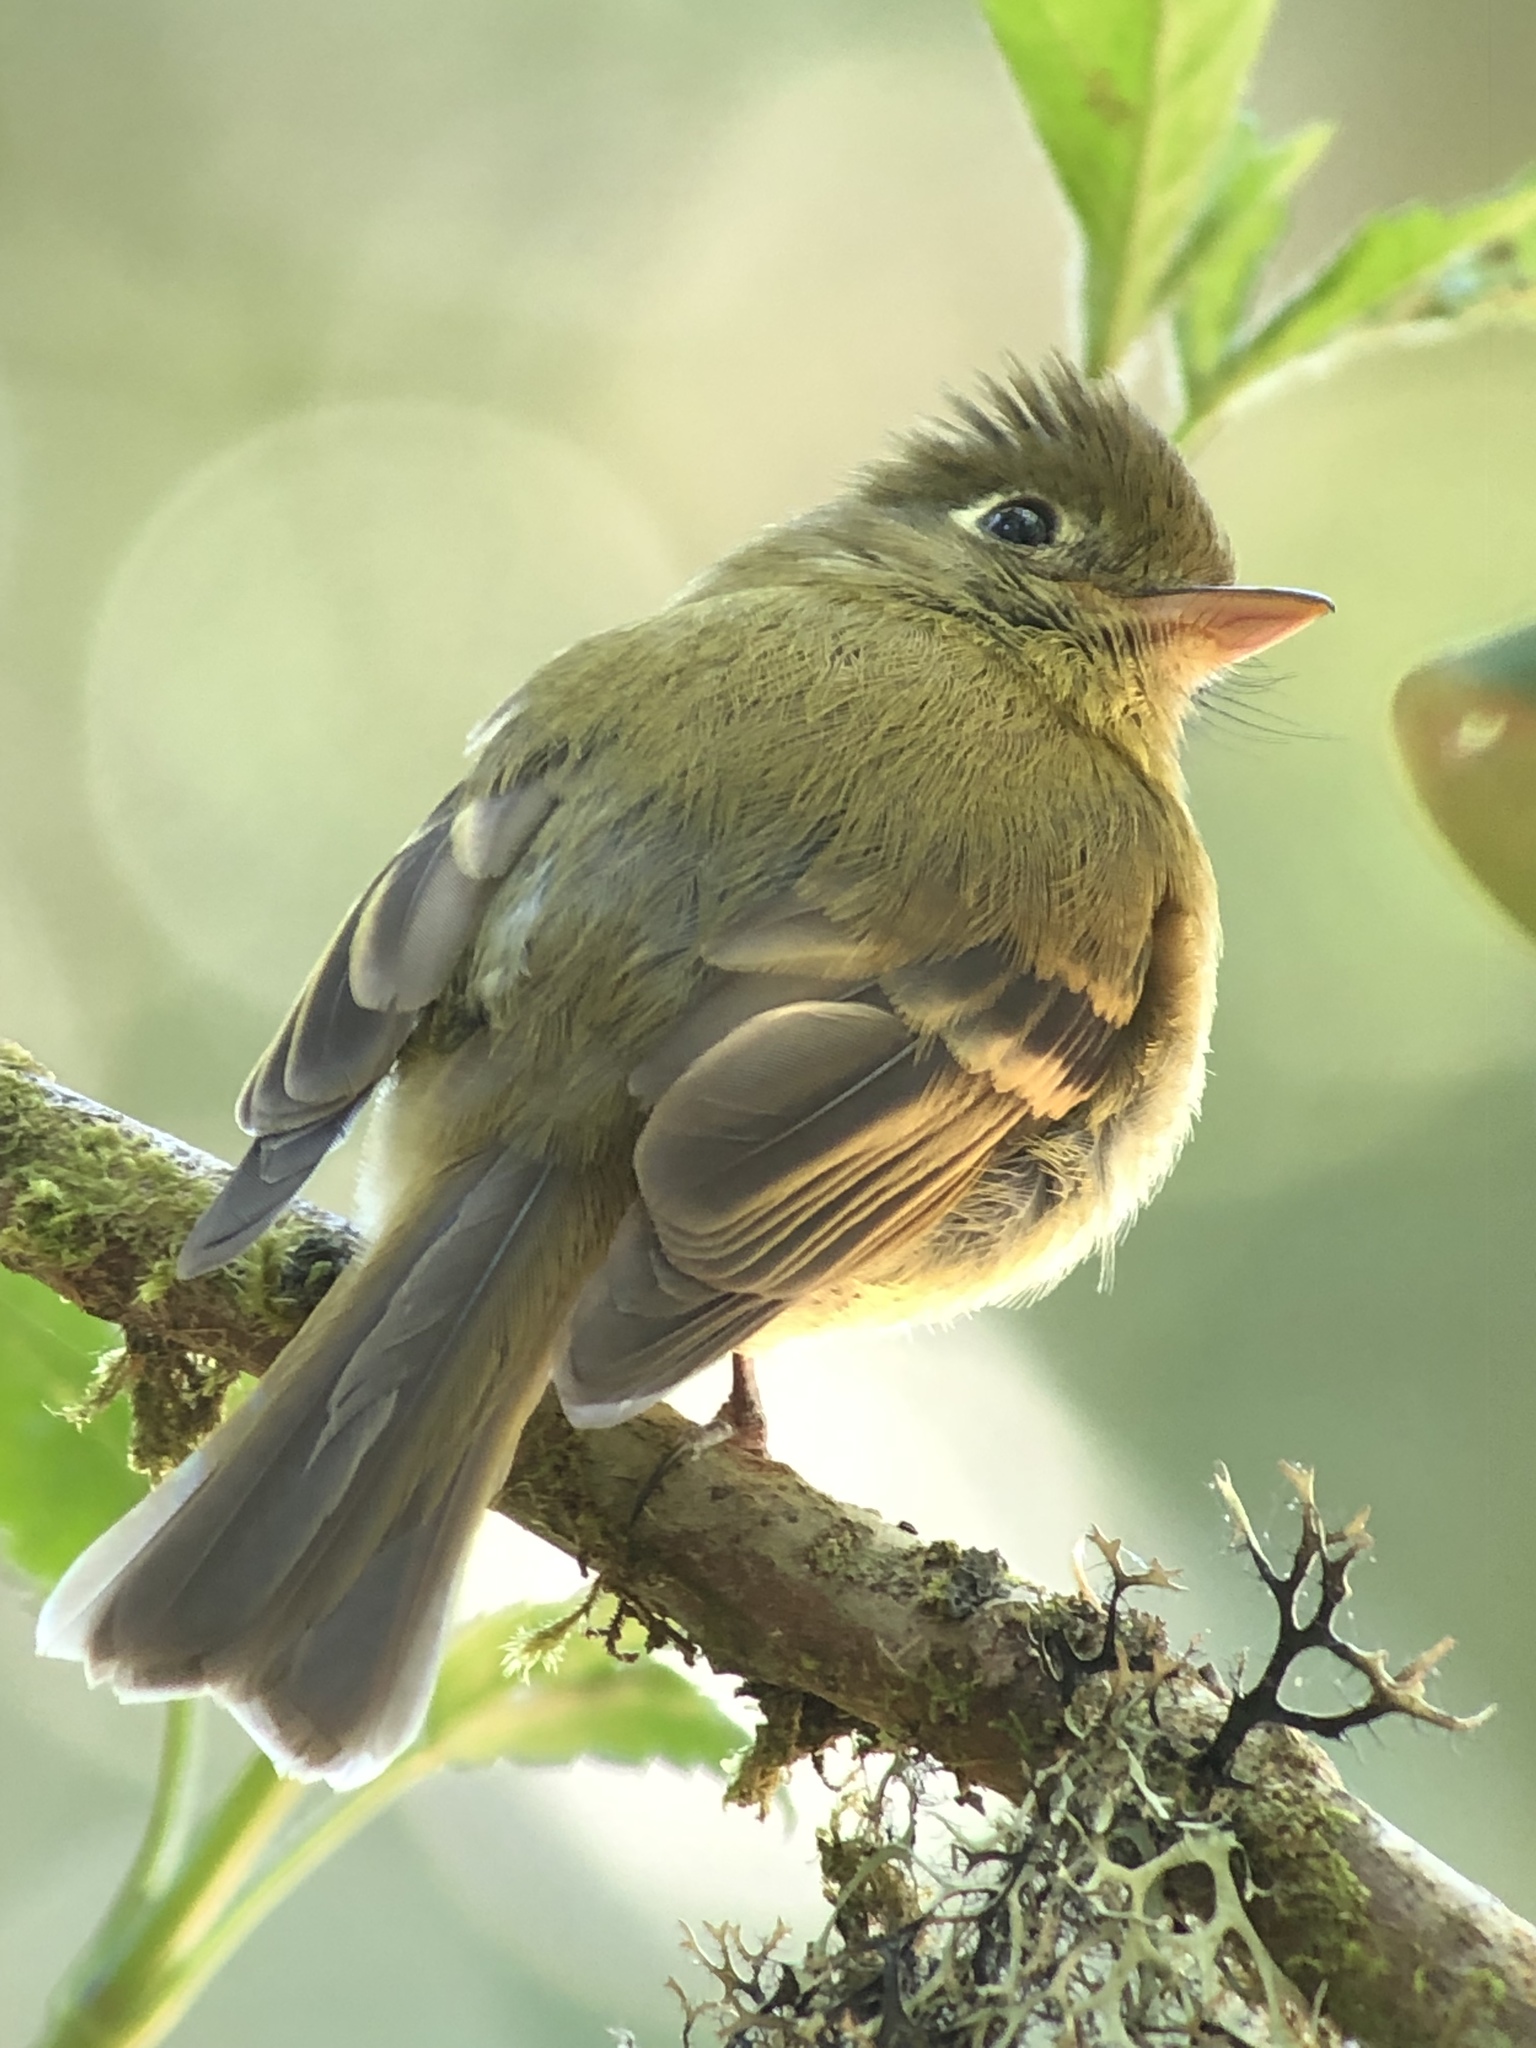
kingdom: Animalia
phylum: Chordata
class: Aves
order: Passeriformes
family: Tyrannidae
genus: Empidonax
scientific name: Empidonax flavescens
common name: Yellowish flycatcher
